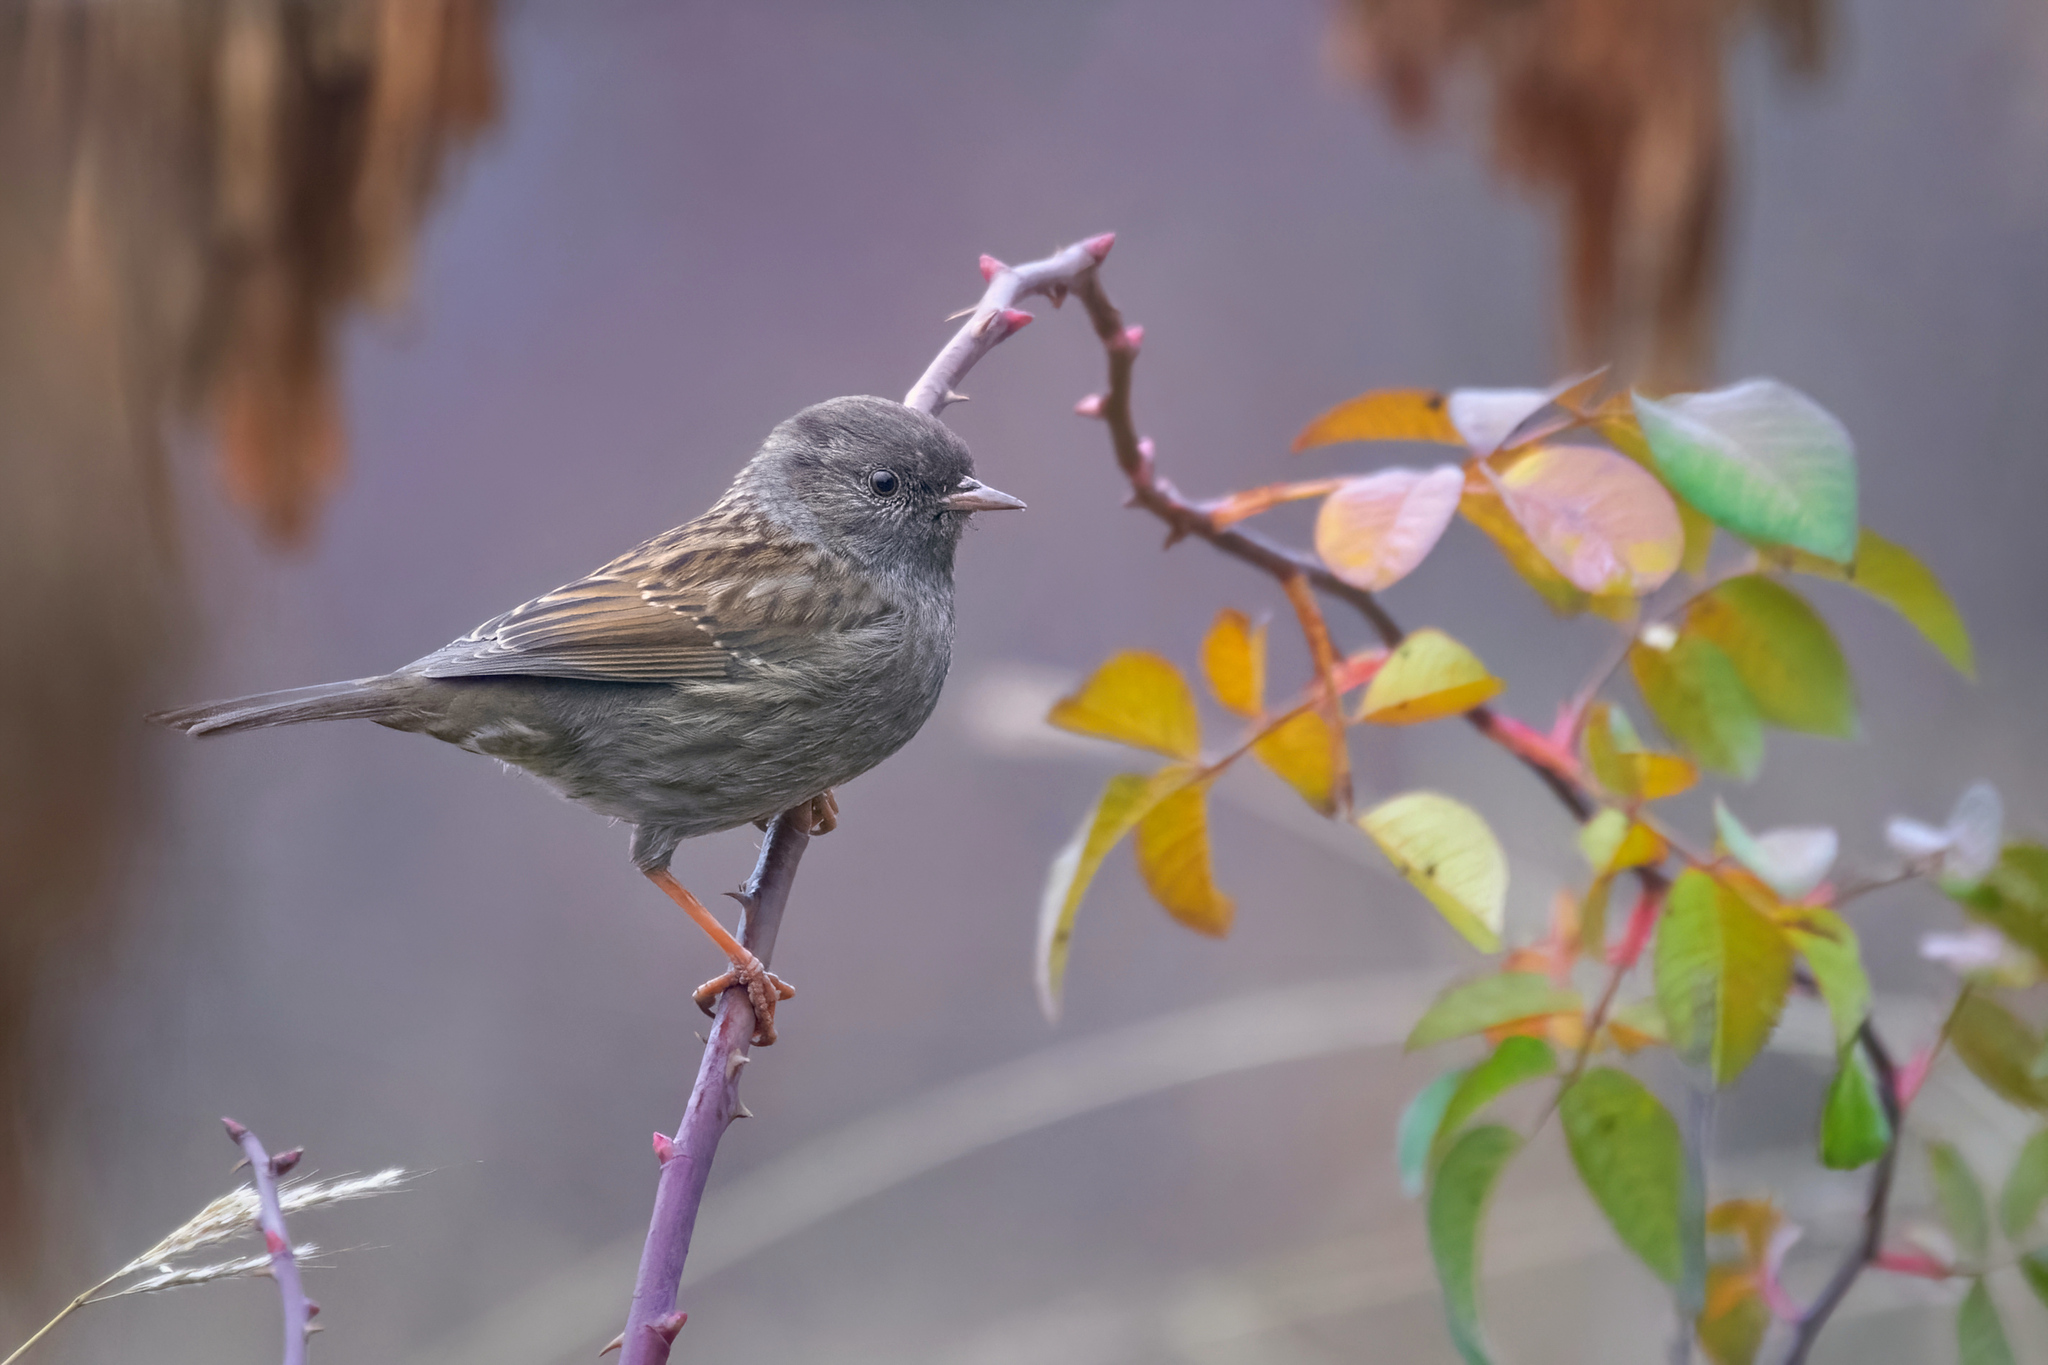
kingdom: Animalia
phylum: Chordata
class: Aves
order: Passeriformes
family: Prunellidae
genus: Prunella
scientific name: Prunella modularis
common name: Dunnock
